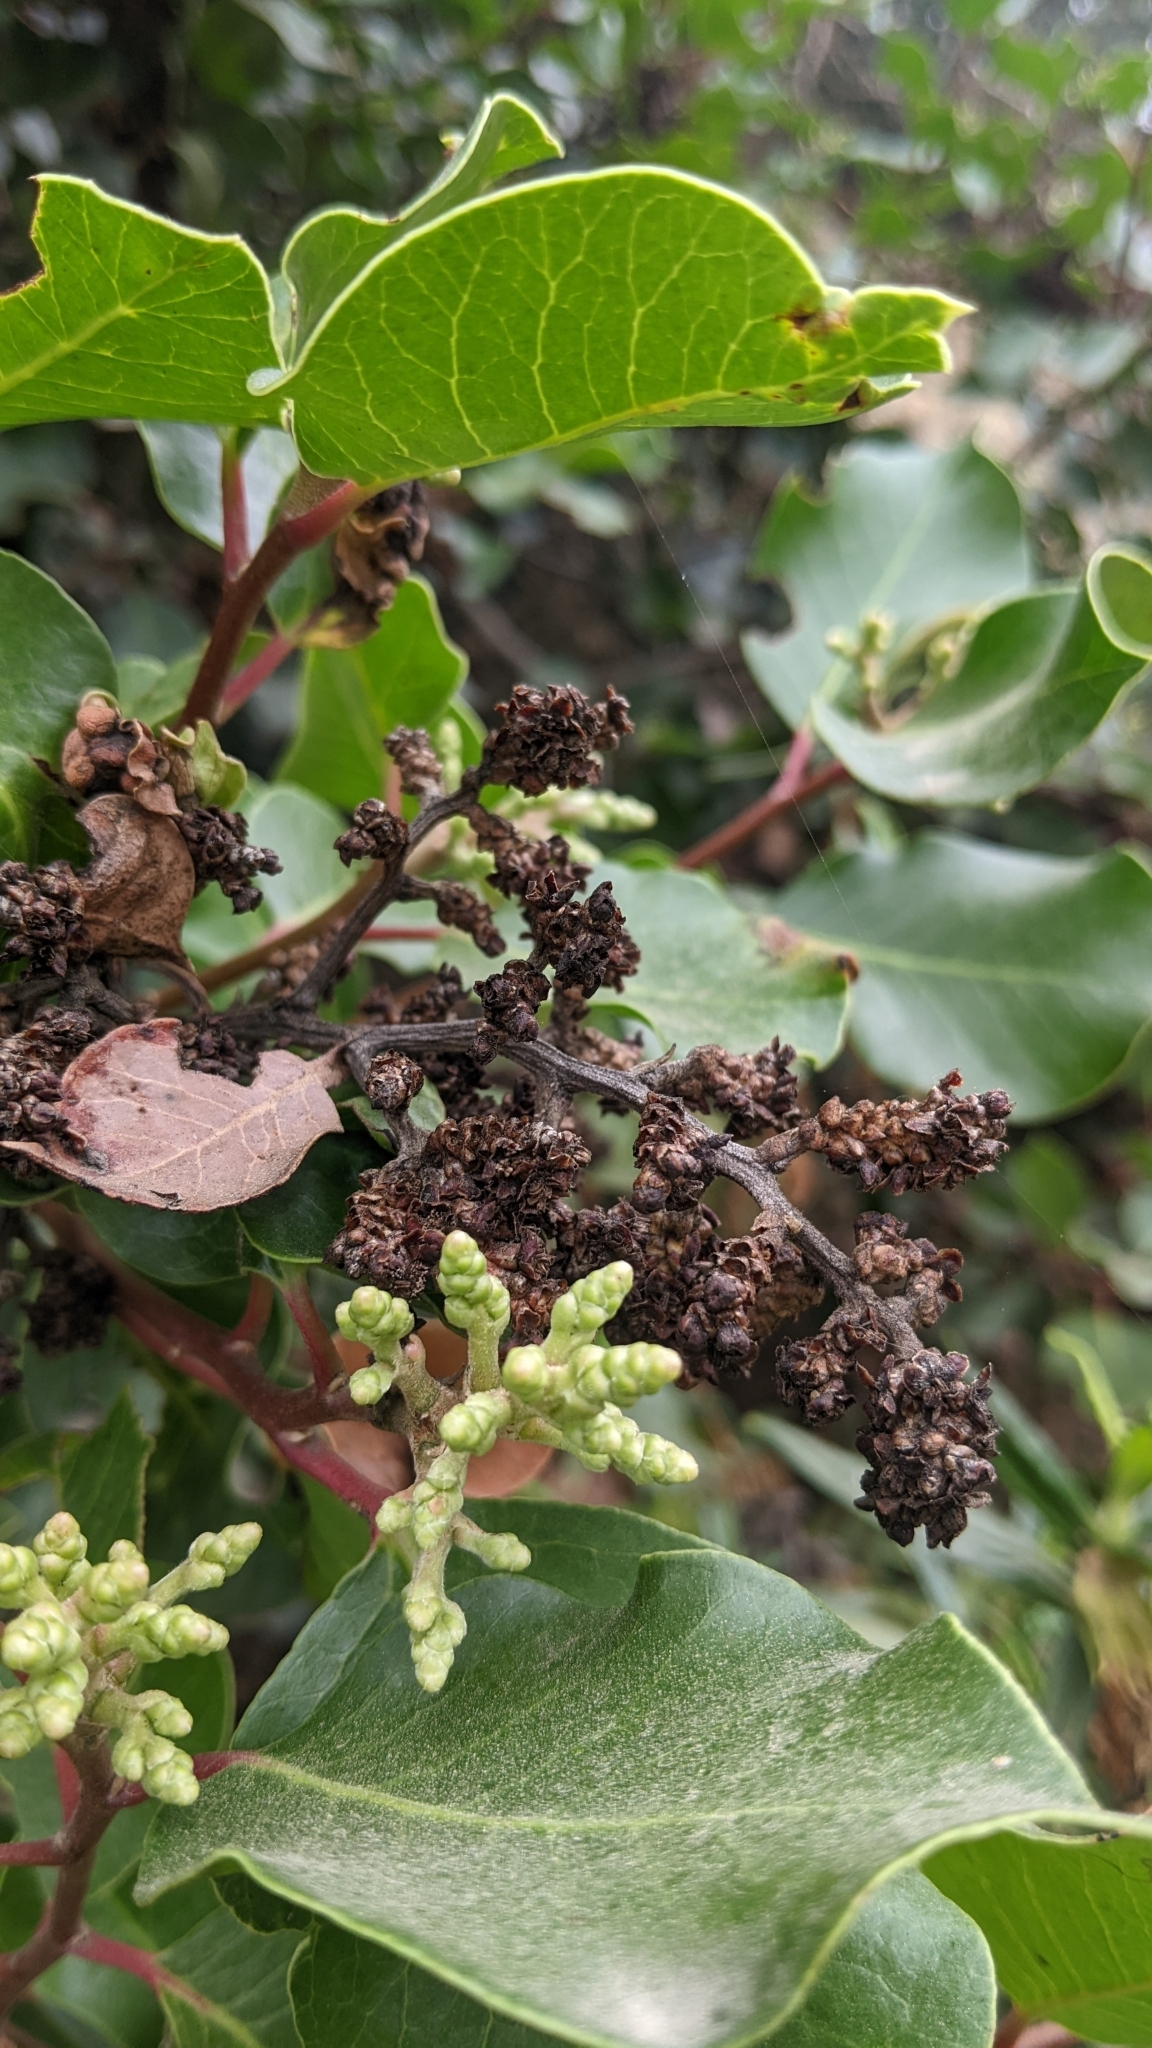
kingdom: Plantae
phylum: Tracheophyta
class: Magnoliopsida
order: Sapindales
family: Anacardiaceae
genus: Rhus
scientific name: Rhus ovata
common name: Sugar sumac
